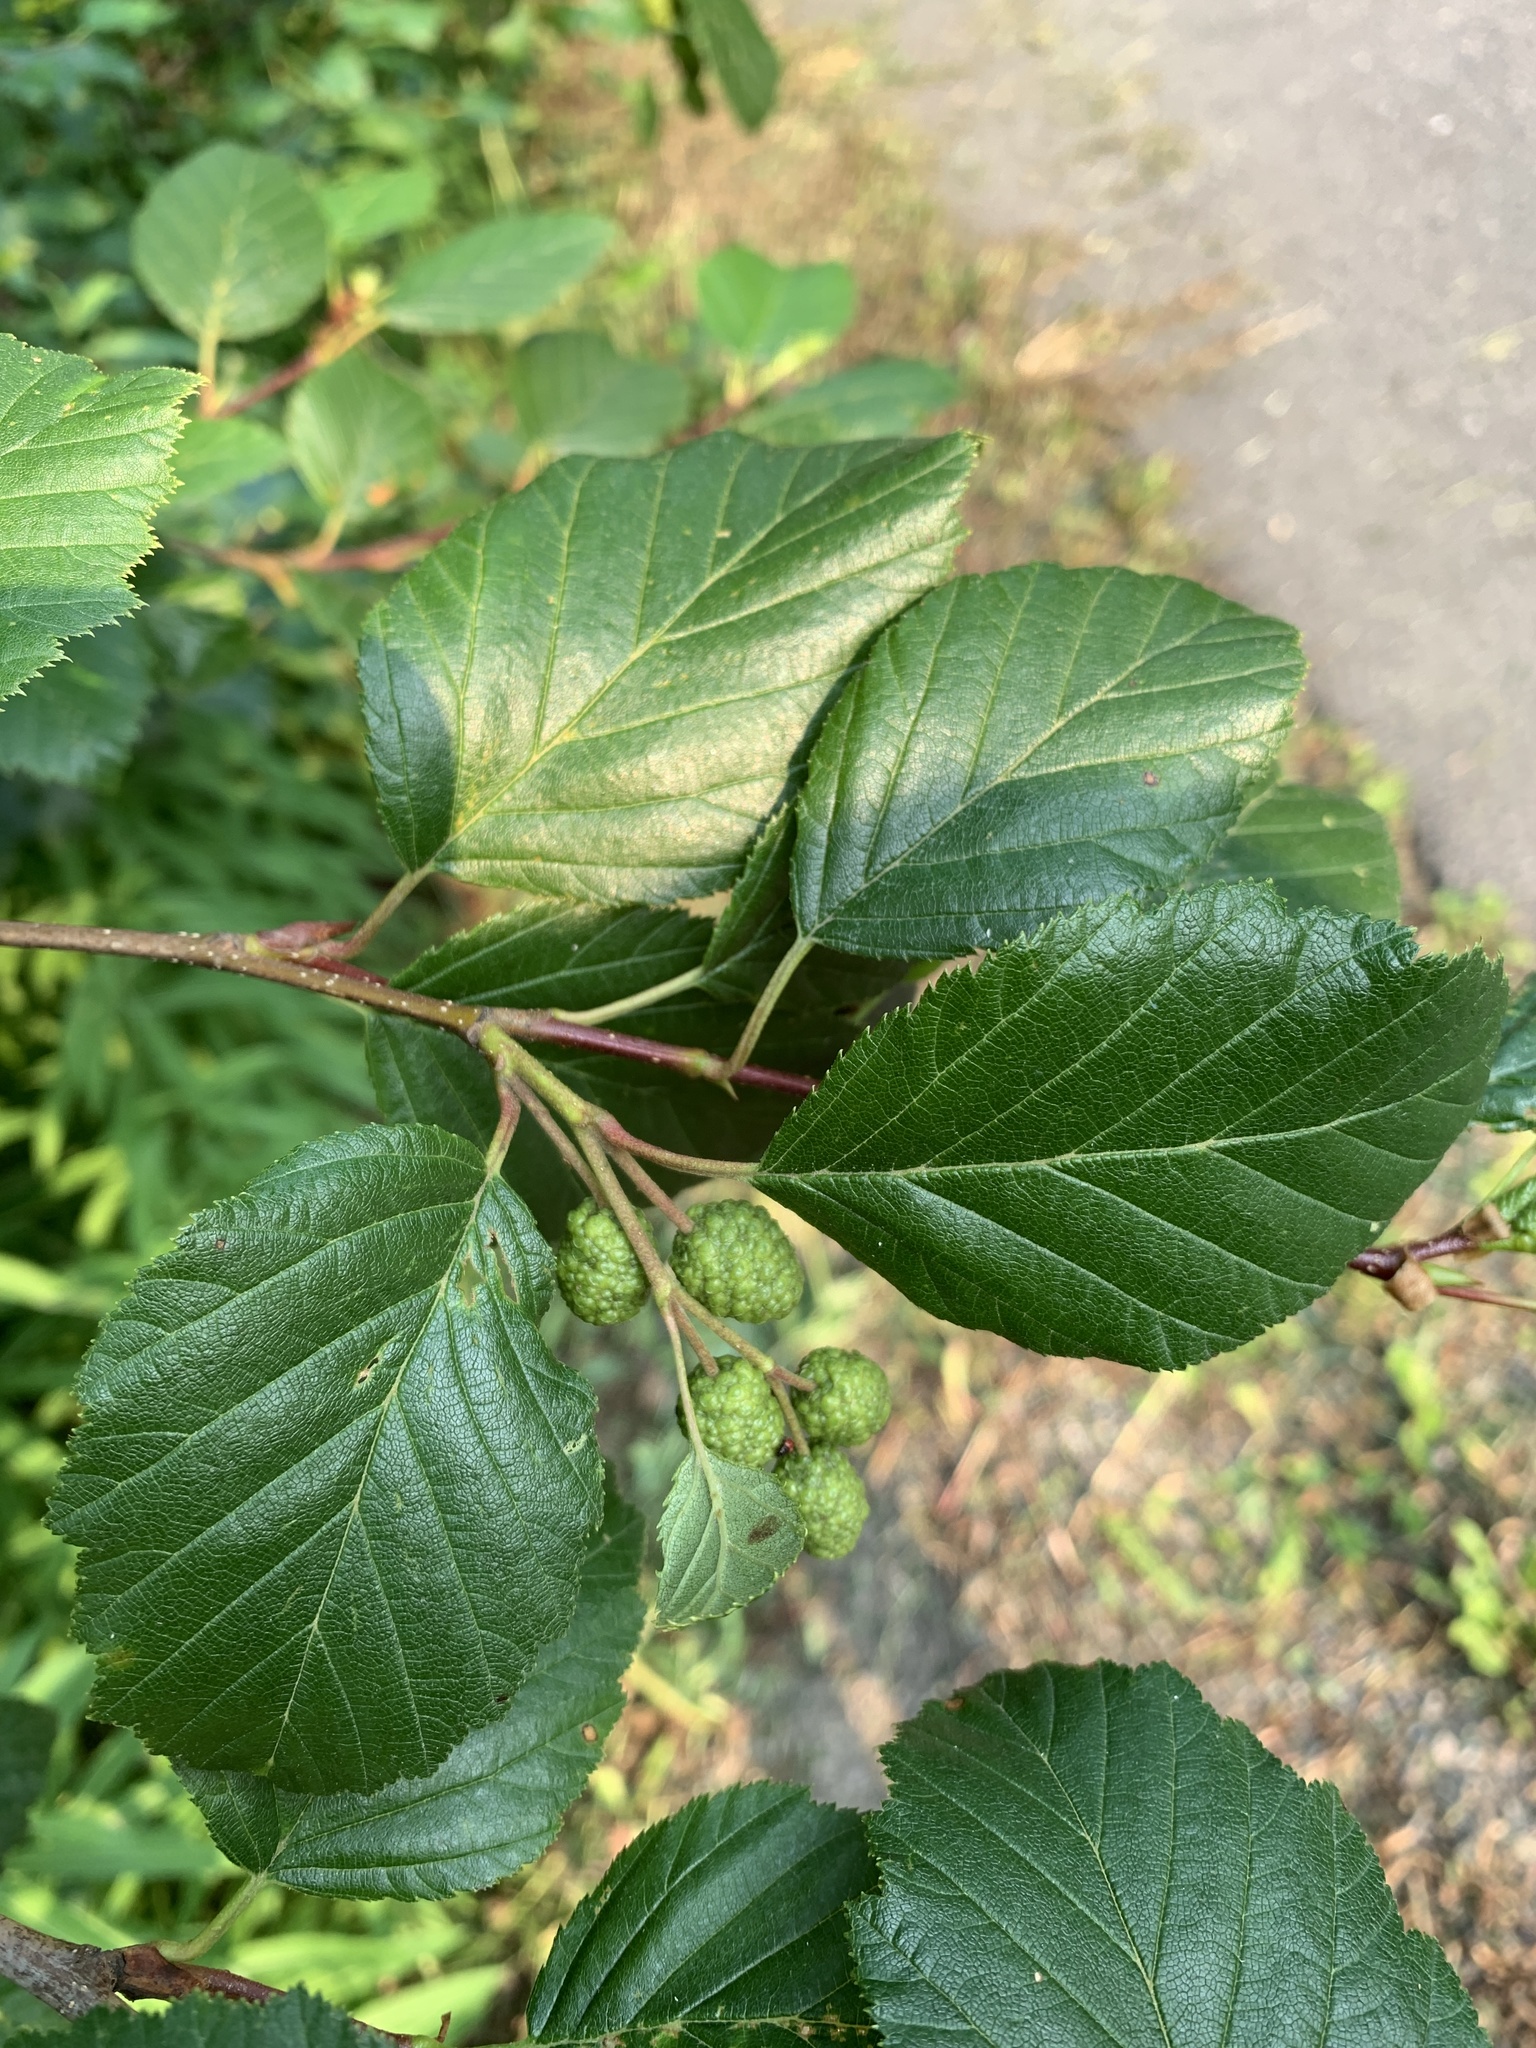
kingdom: Plantae
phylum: Tracheophyta
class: Magnoliopsida
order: Fagales
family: Betulaceae
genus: Alnus
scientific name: Alnus alnobetula
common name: Green alder
